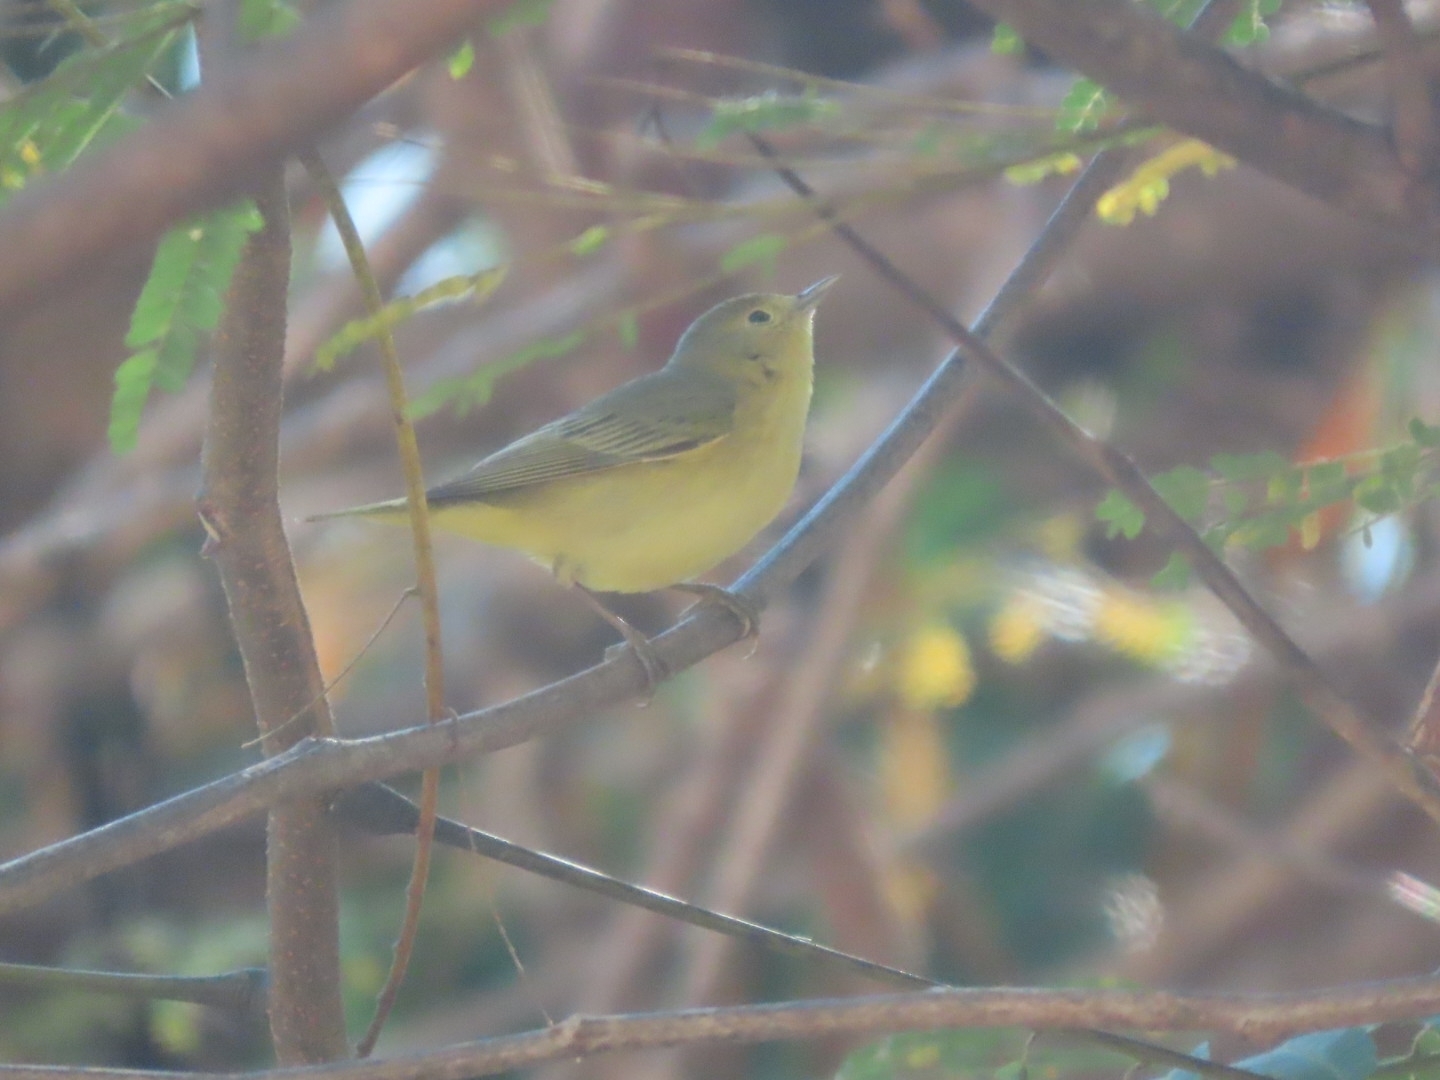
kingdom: Animalia
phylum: Chordata
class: Aves
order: Passeriformes
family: Parulidae
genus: Setophaga
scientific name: Setophaga petechia
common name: Yellow warbler
